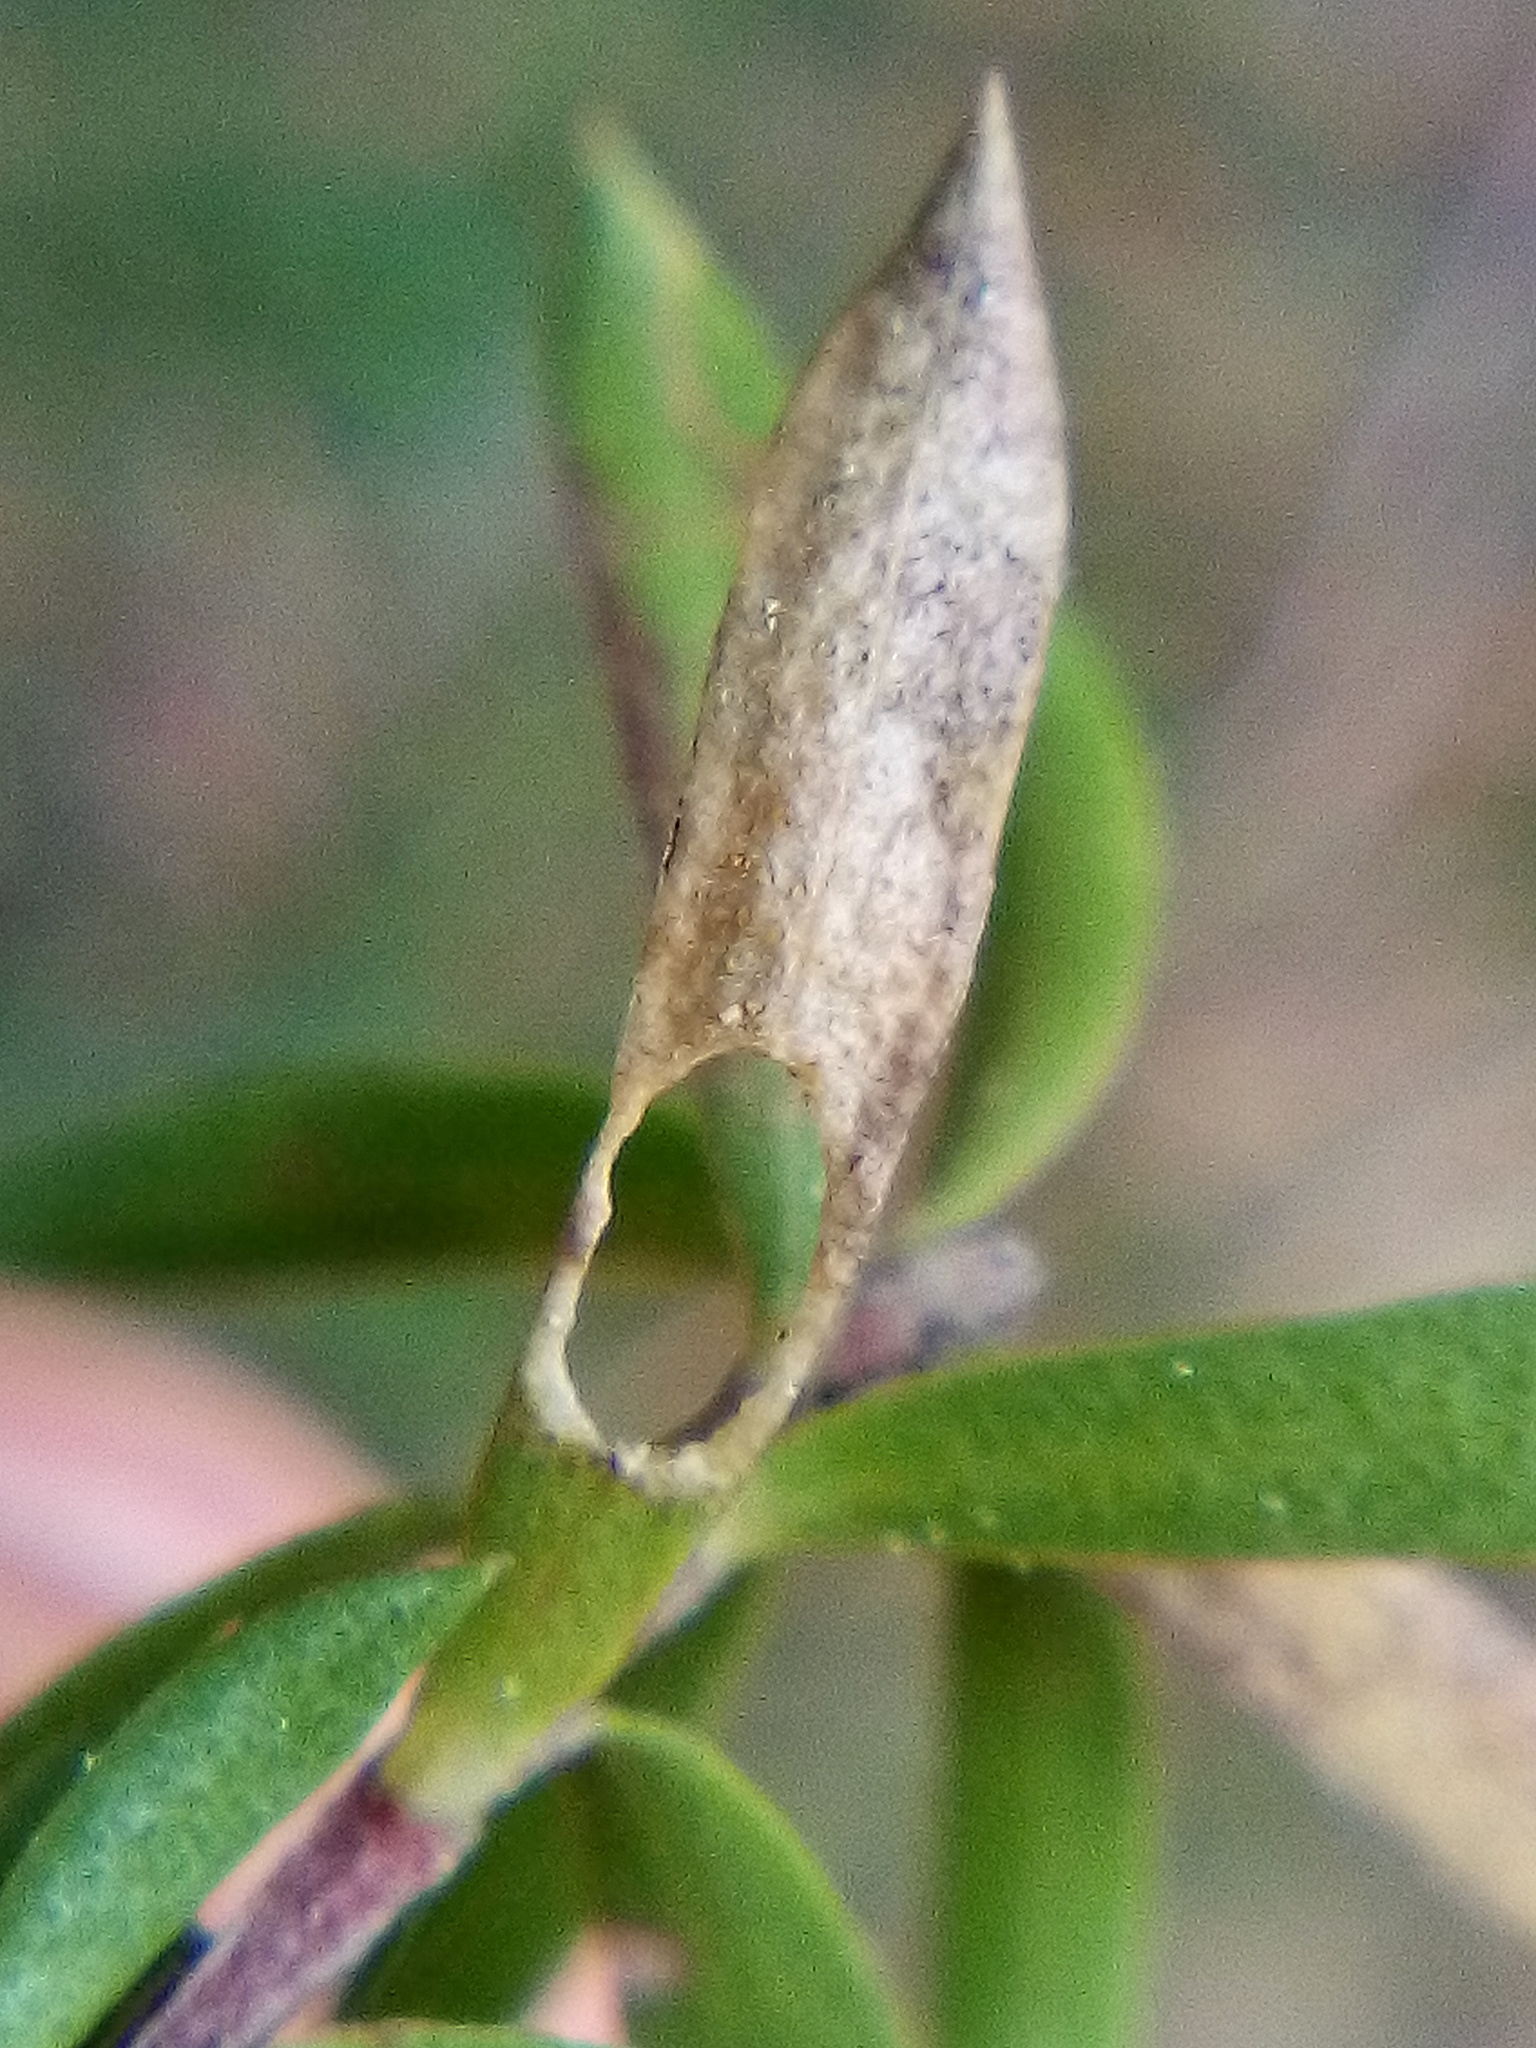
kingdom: Animalia
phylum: Arthropoda
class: Insecta
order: Lepidoptera
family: Heliozelidae
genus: Heliozela
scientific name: Heliozela catoptrias
